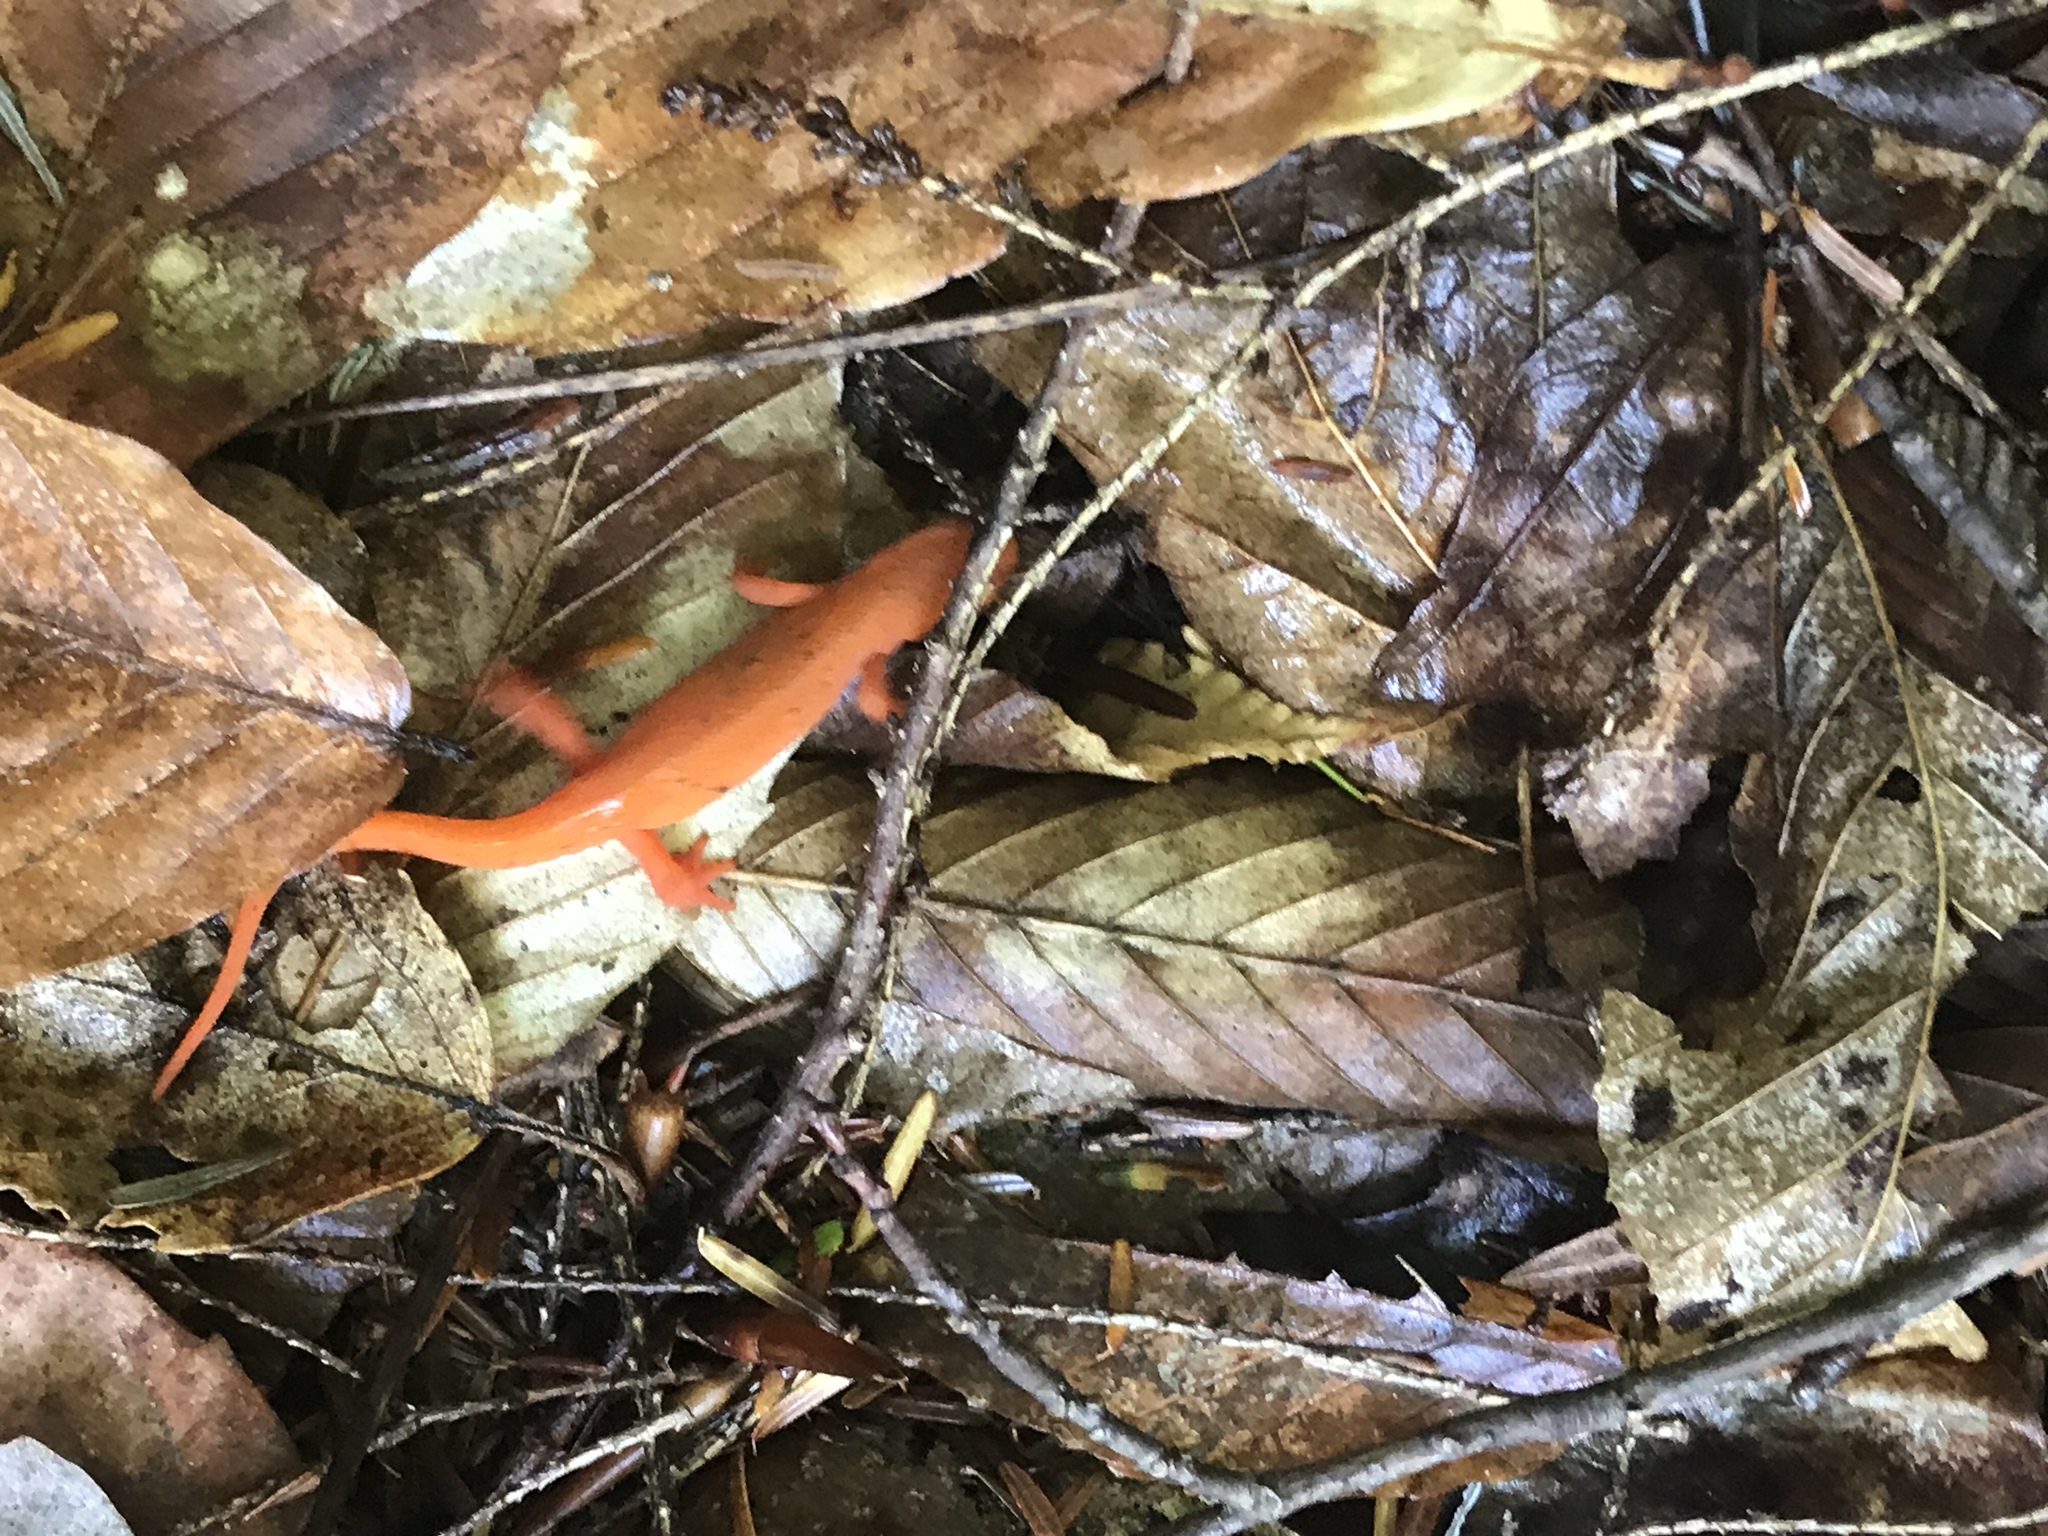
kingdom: Animalia
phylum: Chordata
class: Amphibia
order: Caudata
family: Salamandridae
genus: Notophthalmus
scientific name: Notophthalmus viridescens
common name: Eastern newt
